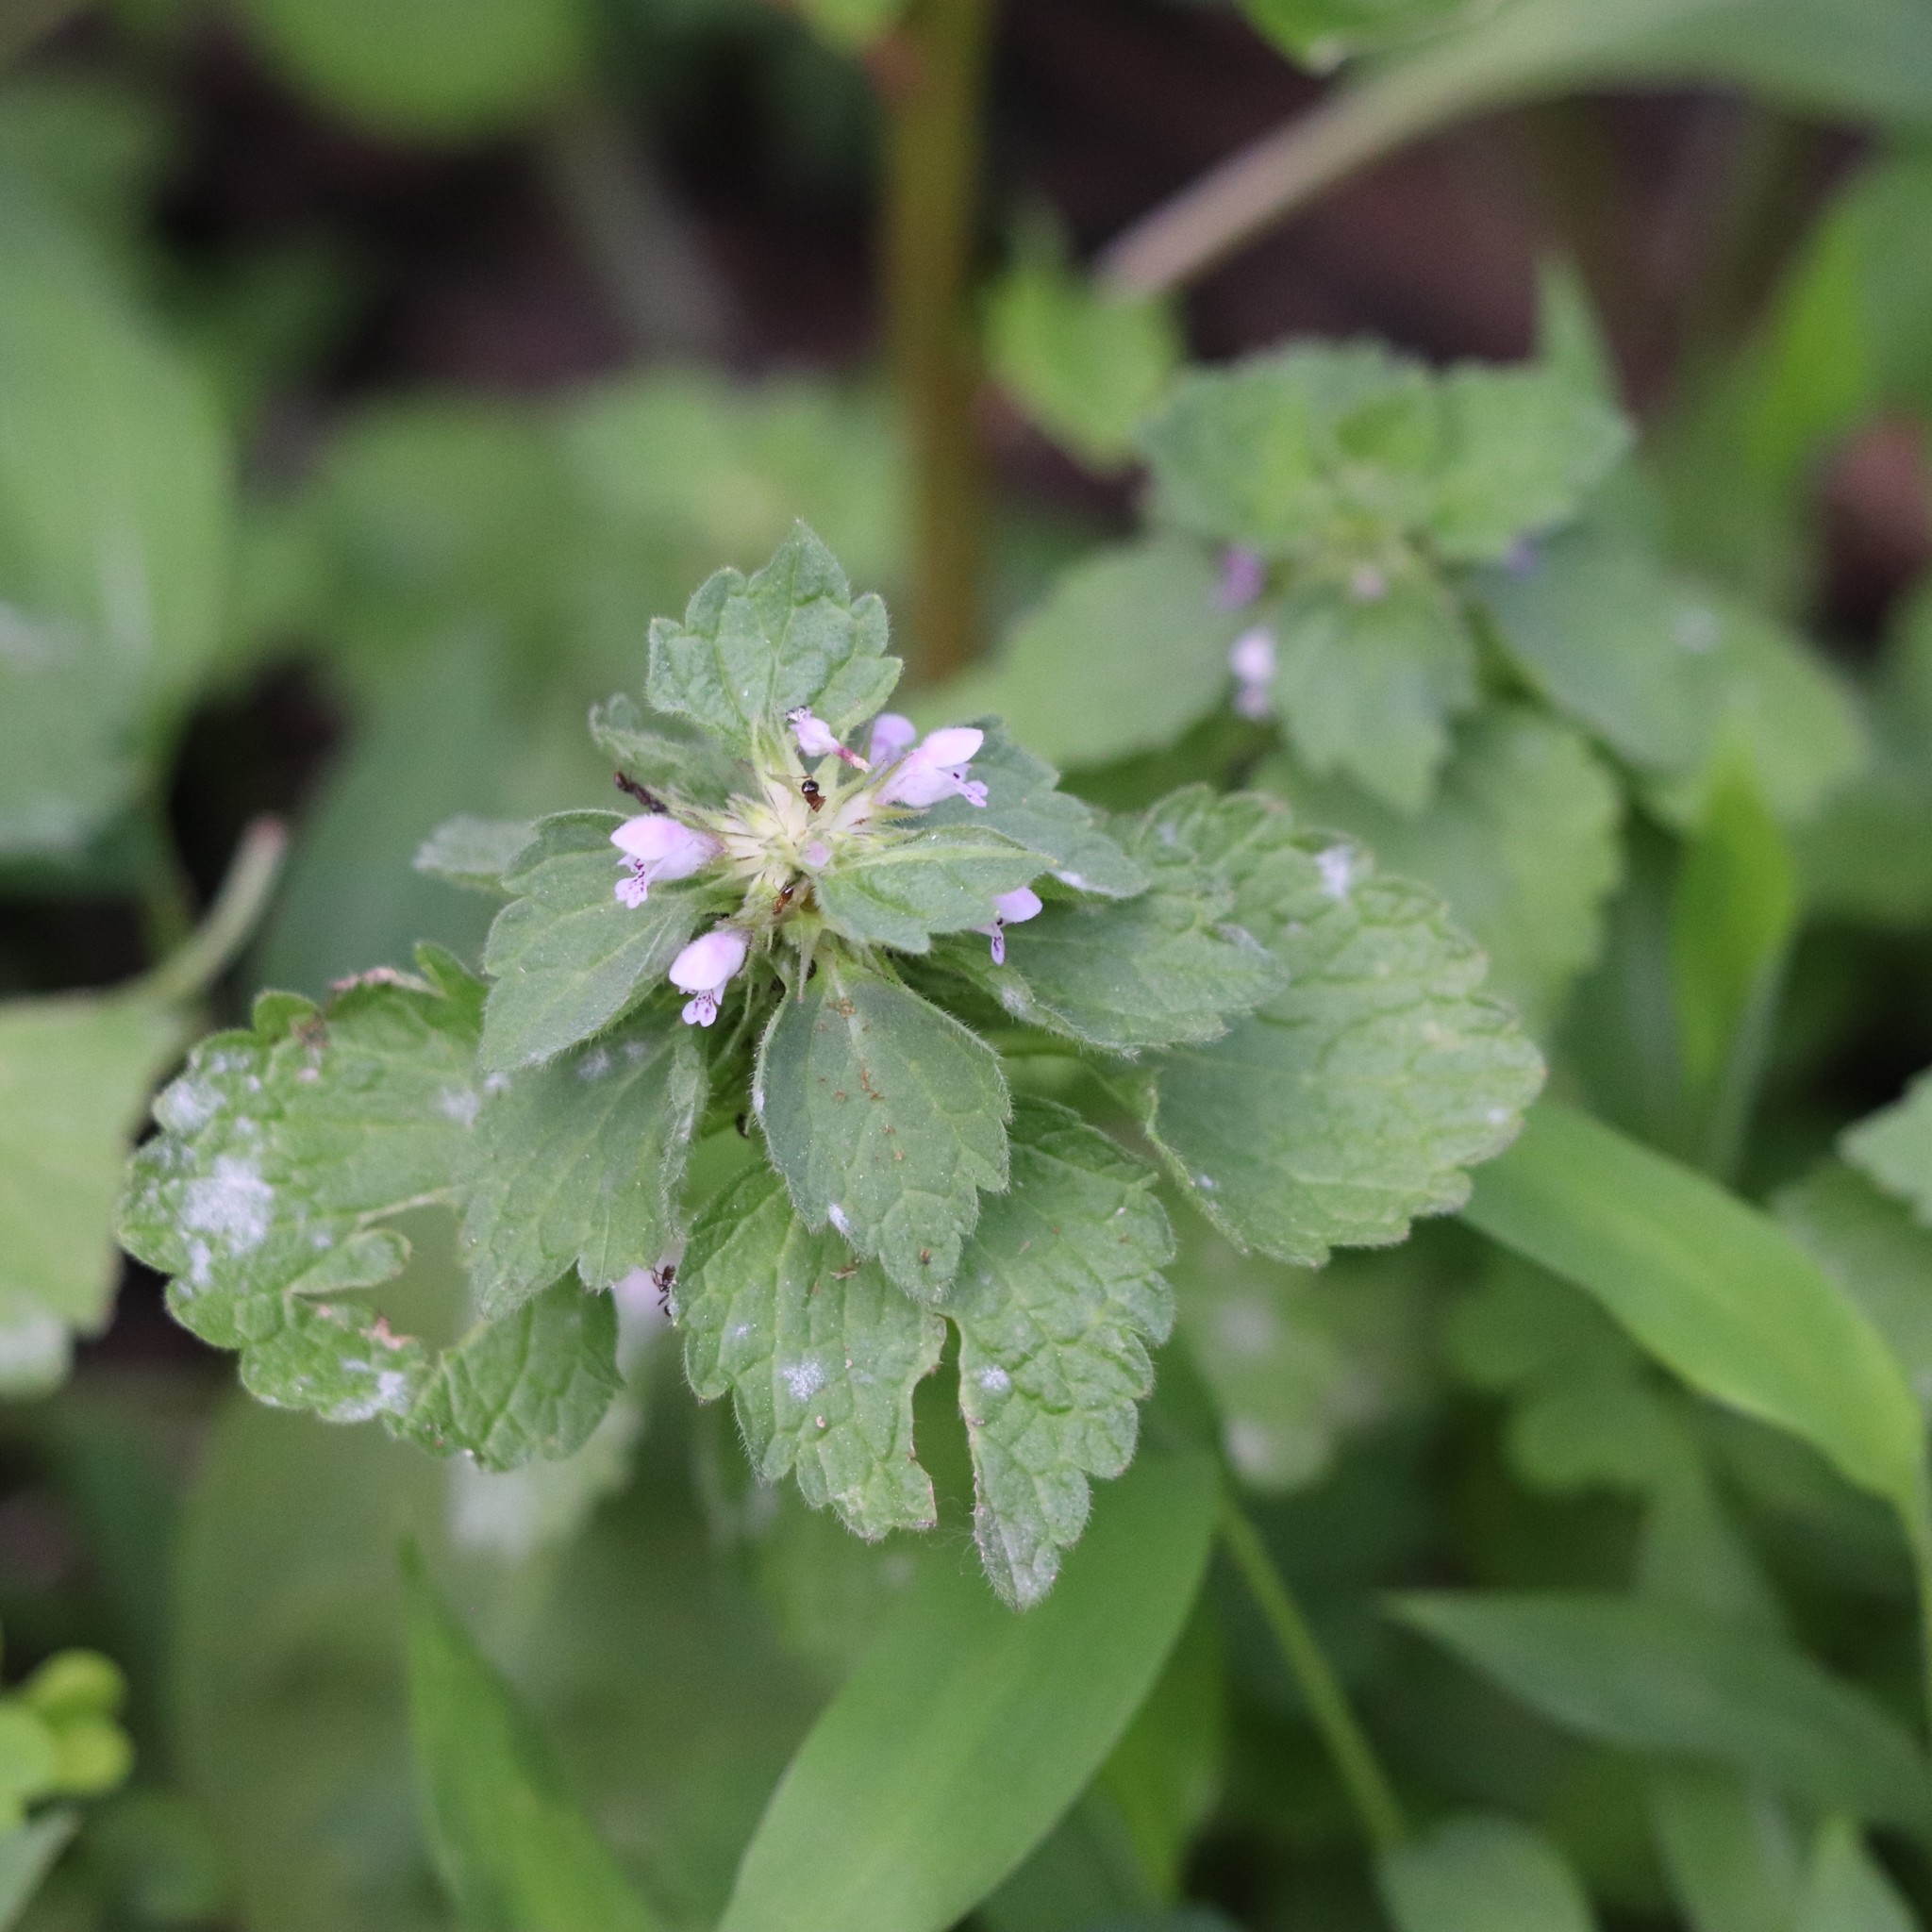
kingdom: Plantae
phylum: Tracheophyta
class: Magnoliopsida
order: Lamiales
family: Lamiaceae
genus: Lamium
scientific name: Lamium purpureum
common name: Red dead-nettle
